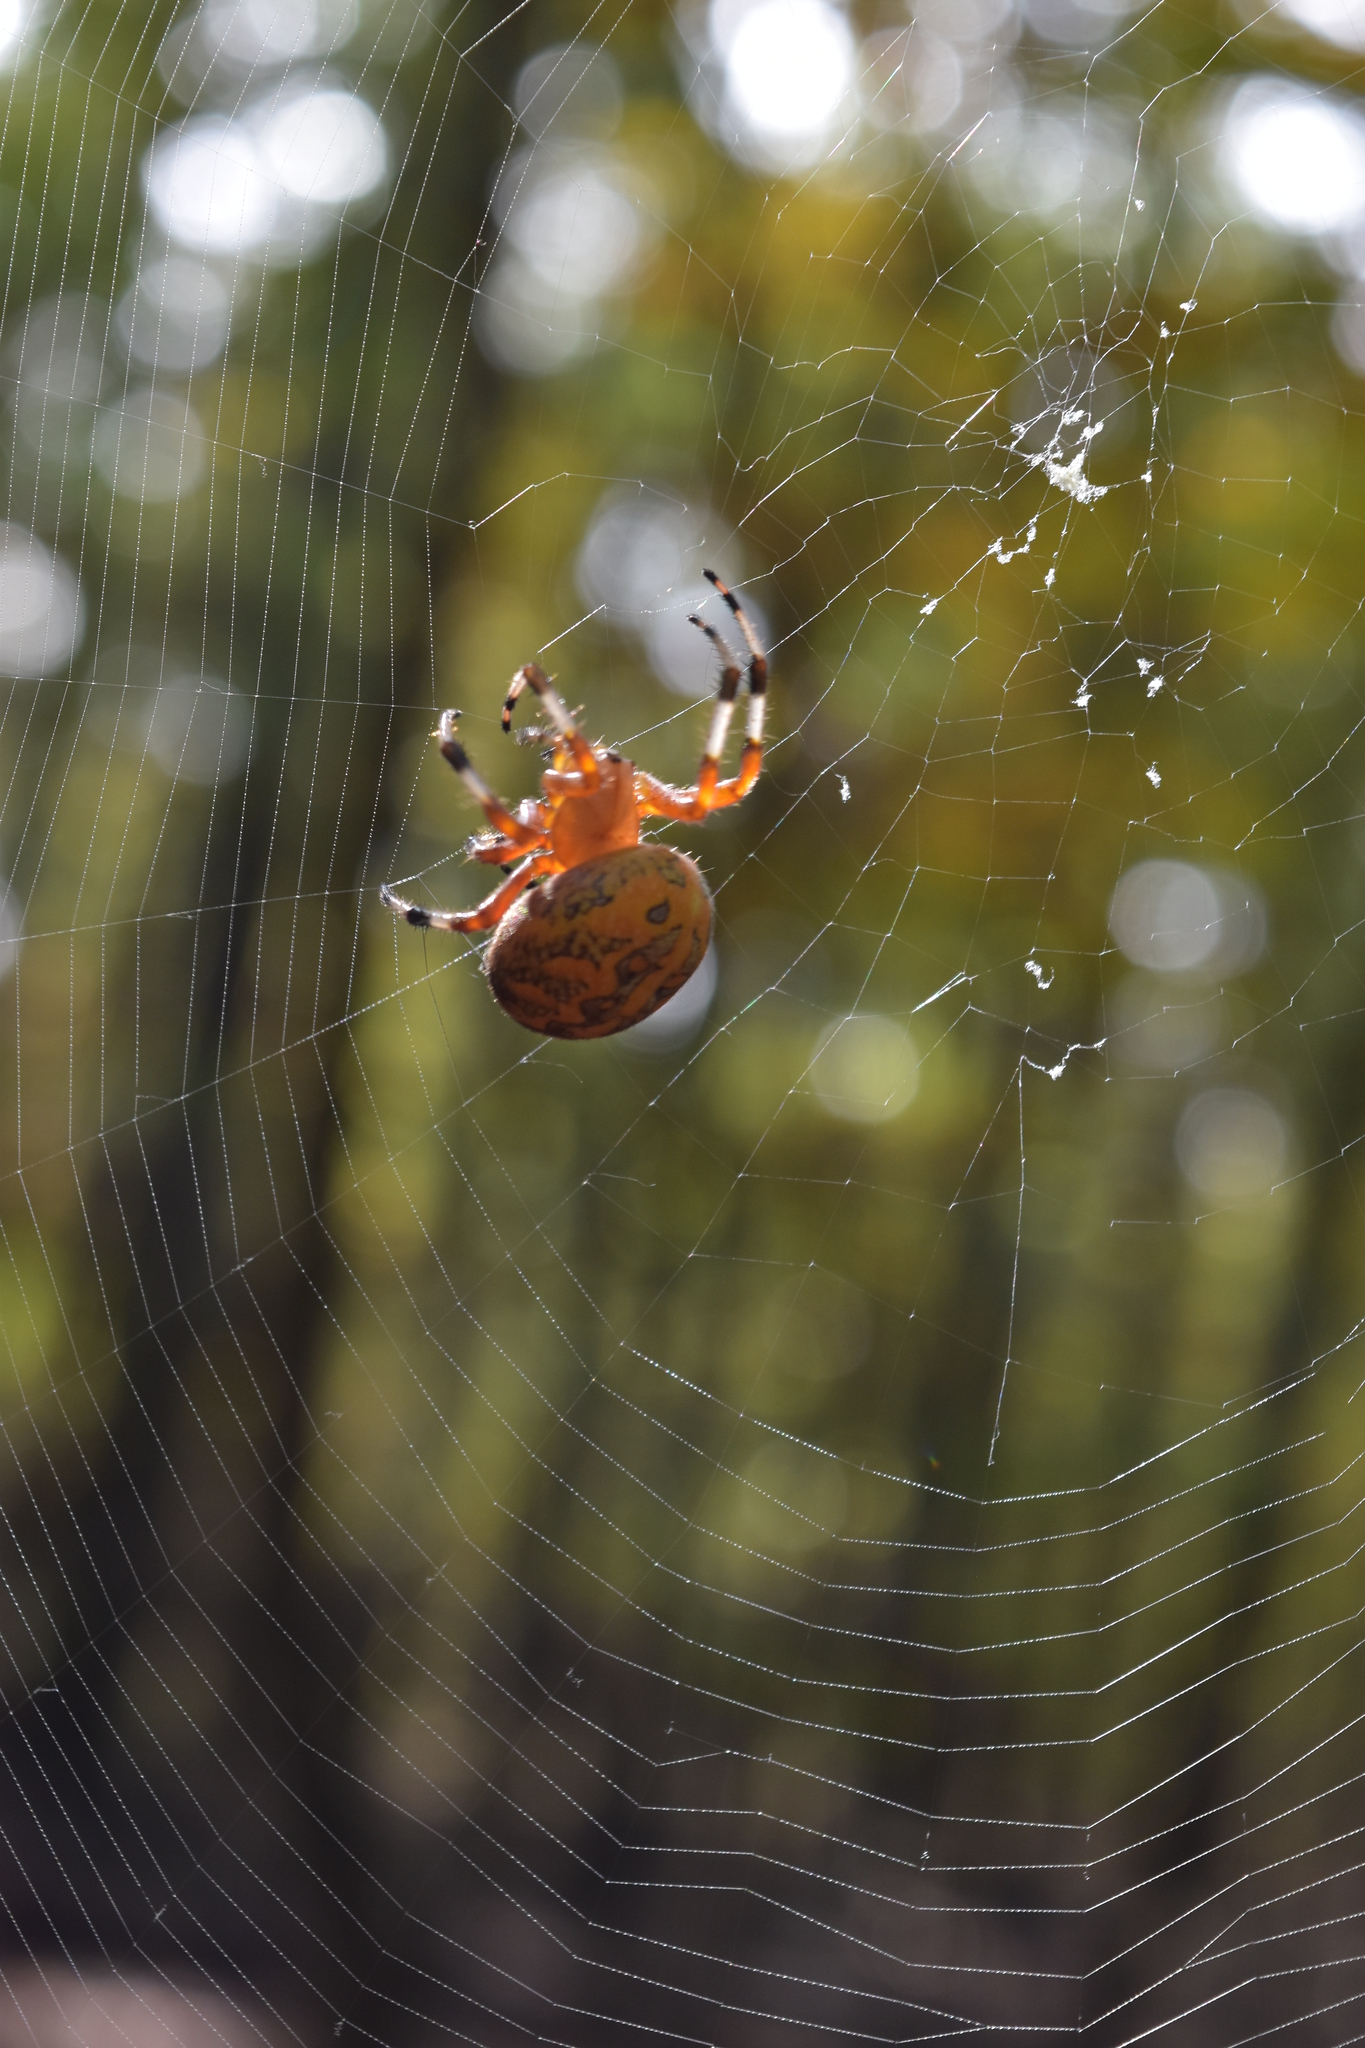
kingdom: Animalia
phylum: Arthropoda
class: Arachnida
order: Araneae
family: Araneidae
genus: Araneus
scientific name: Araneus marmoreus
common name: Marbled orbweaver
